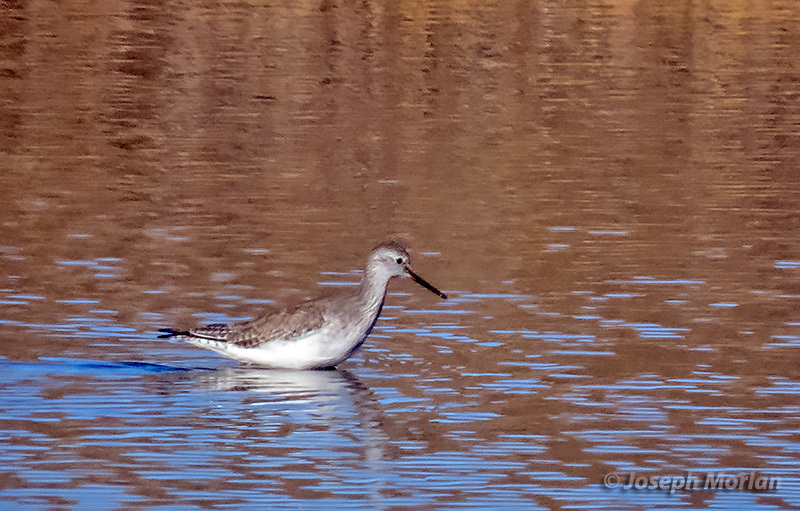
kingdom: Animalia
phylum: Chordata
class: Aves
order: Charadriiformes
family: Scolopacidae
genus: Tringa
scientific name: Tringa flavipes
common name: Lesser yellowlegs
